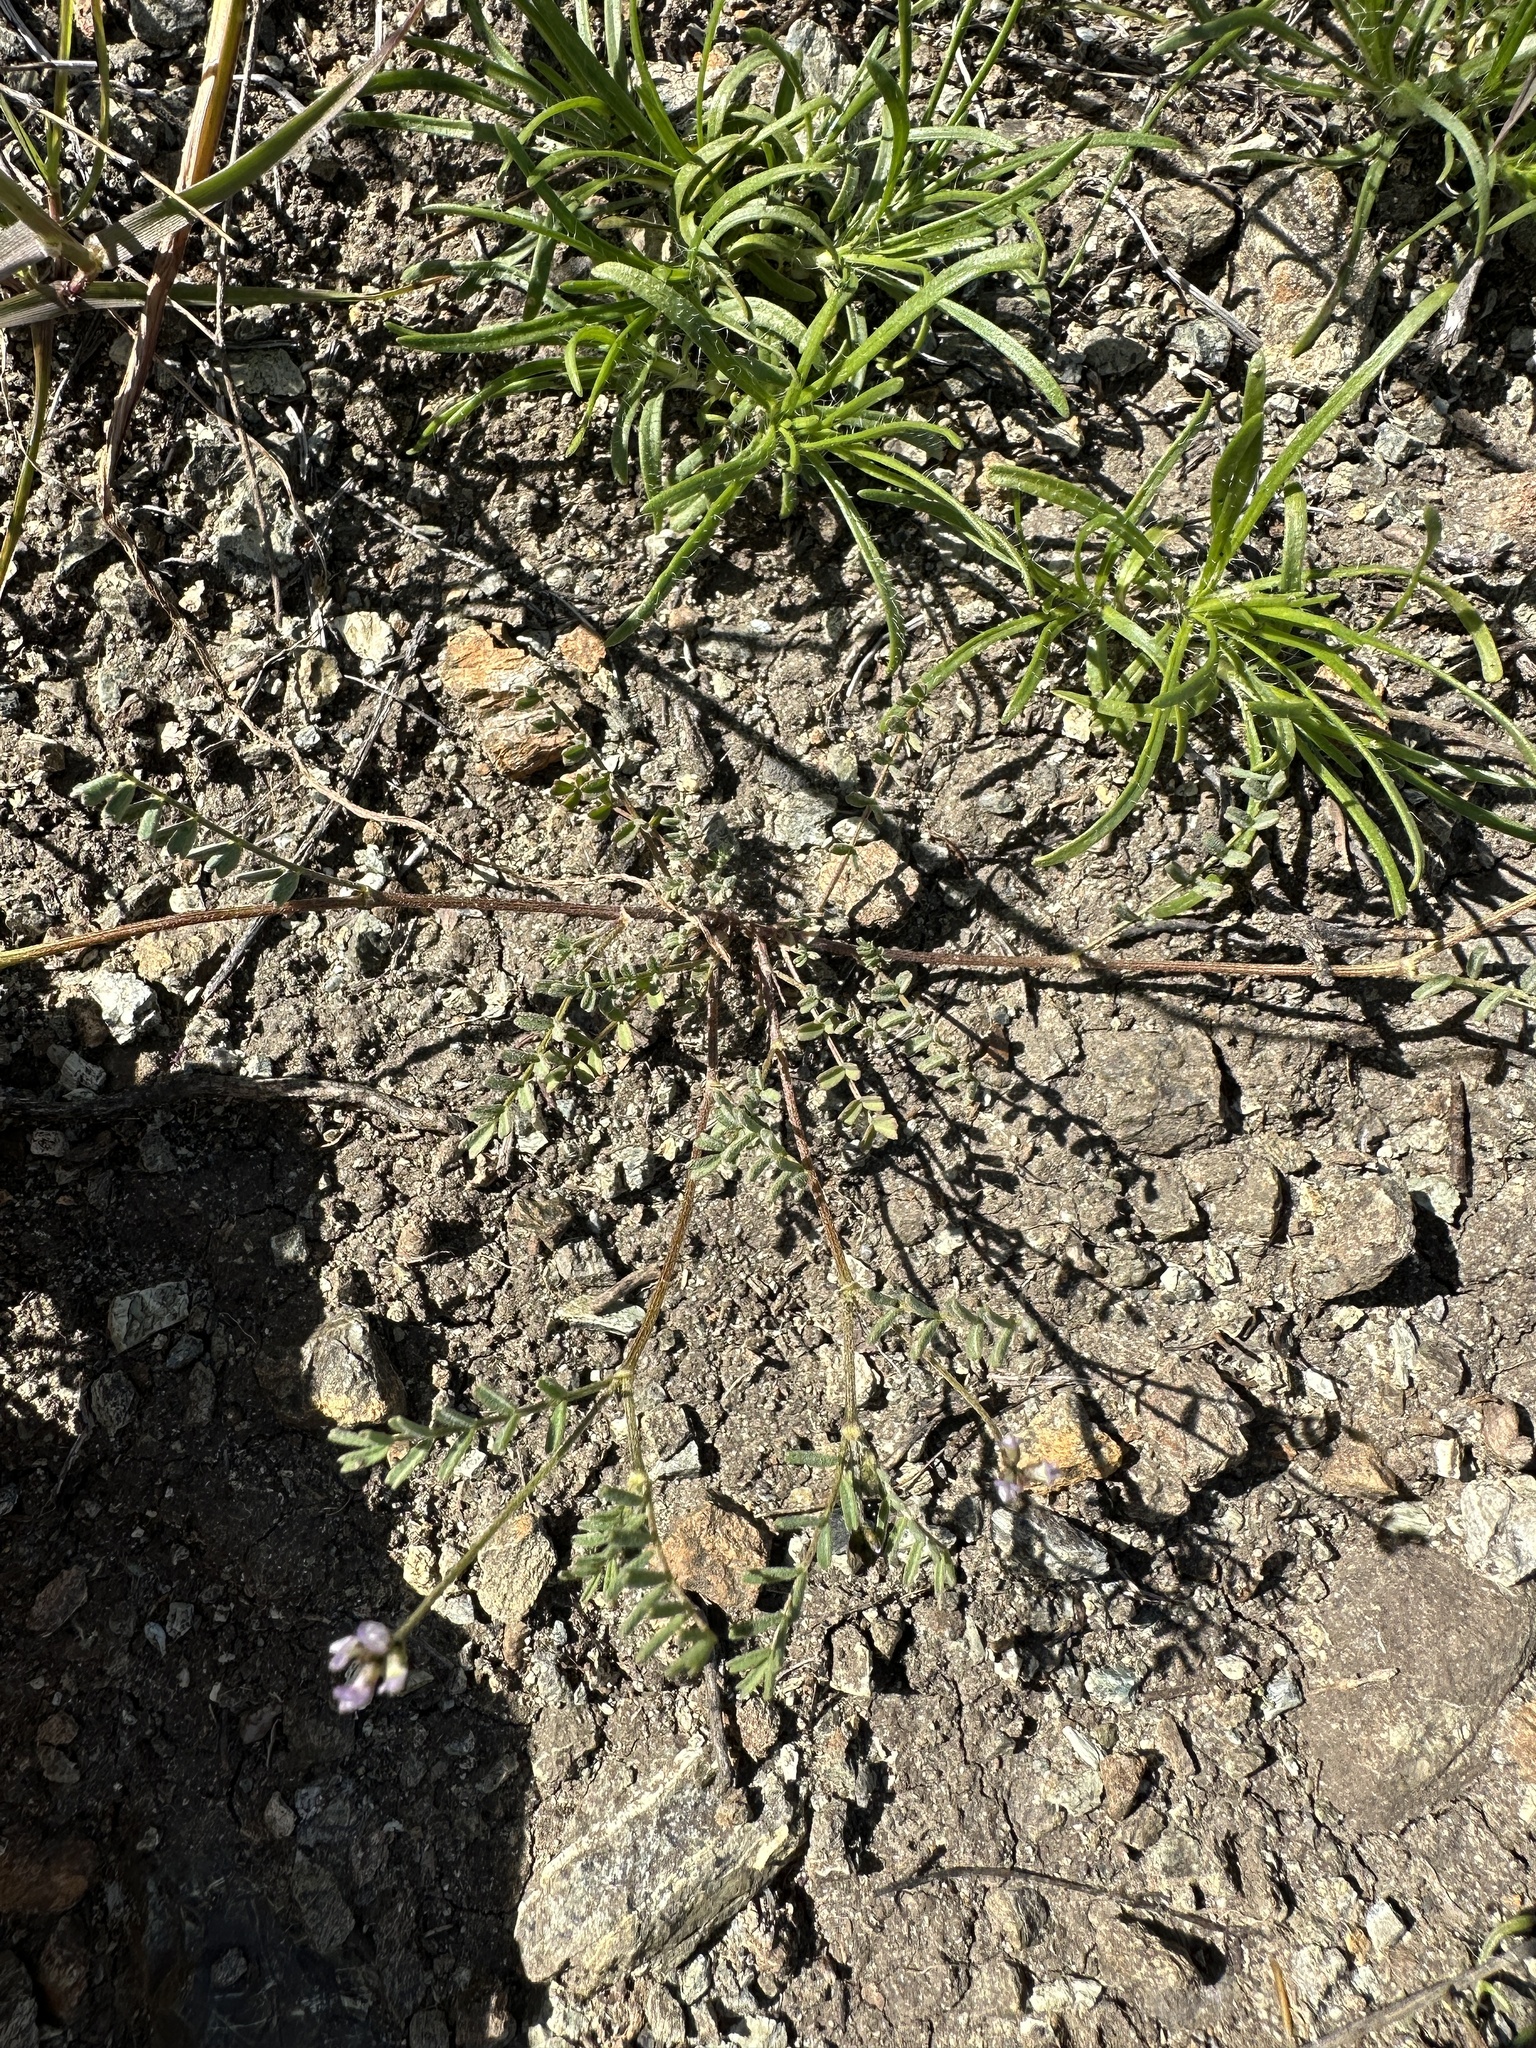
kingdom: Plantae
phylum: Tracheophyta
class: Magnoliopsida
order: Fabales
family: Fabaceae
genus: Astragalus
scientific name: Astragalus gambelianus
